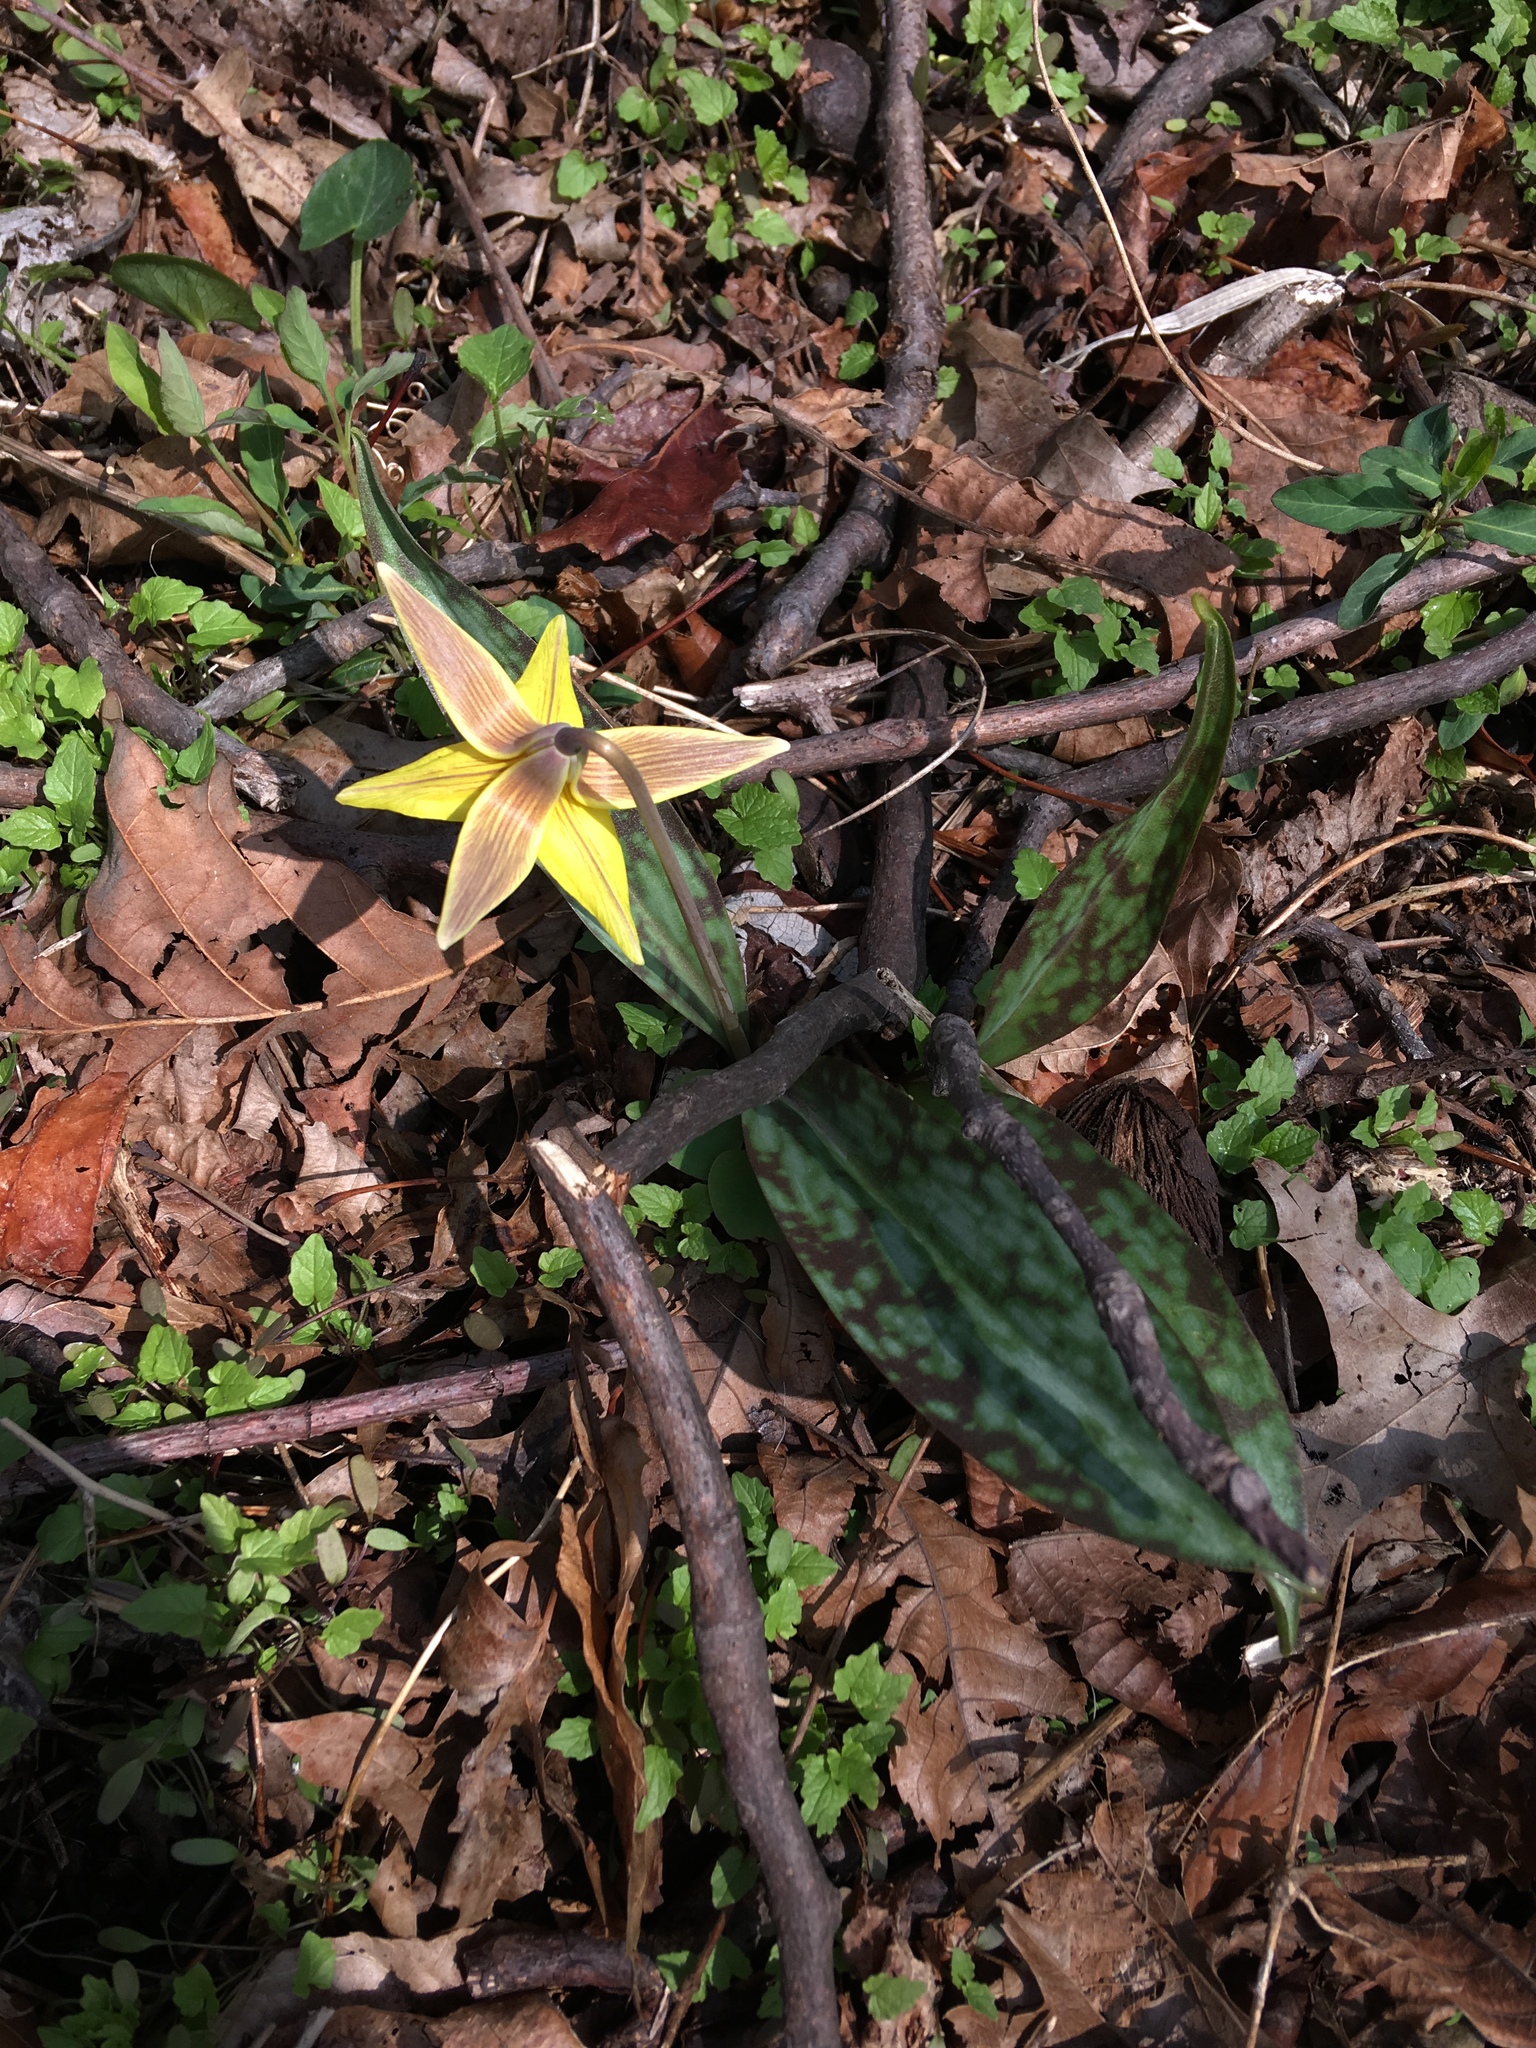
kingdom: Plantae
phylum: Tracheophyta
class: Liliopsida
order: Liliales
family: Liliaceae
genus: Erythronium
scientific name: Erythronium americanum
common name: Yellow adder's-tongue
